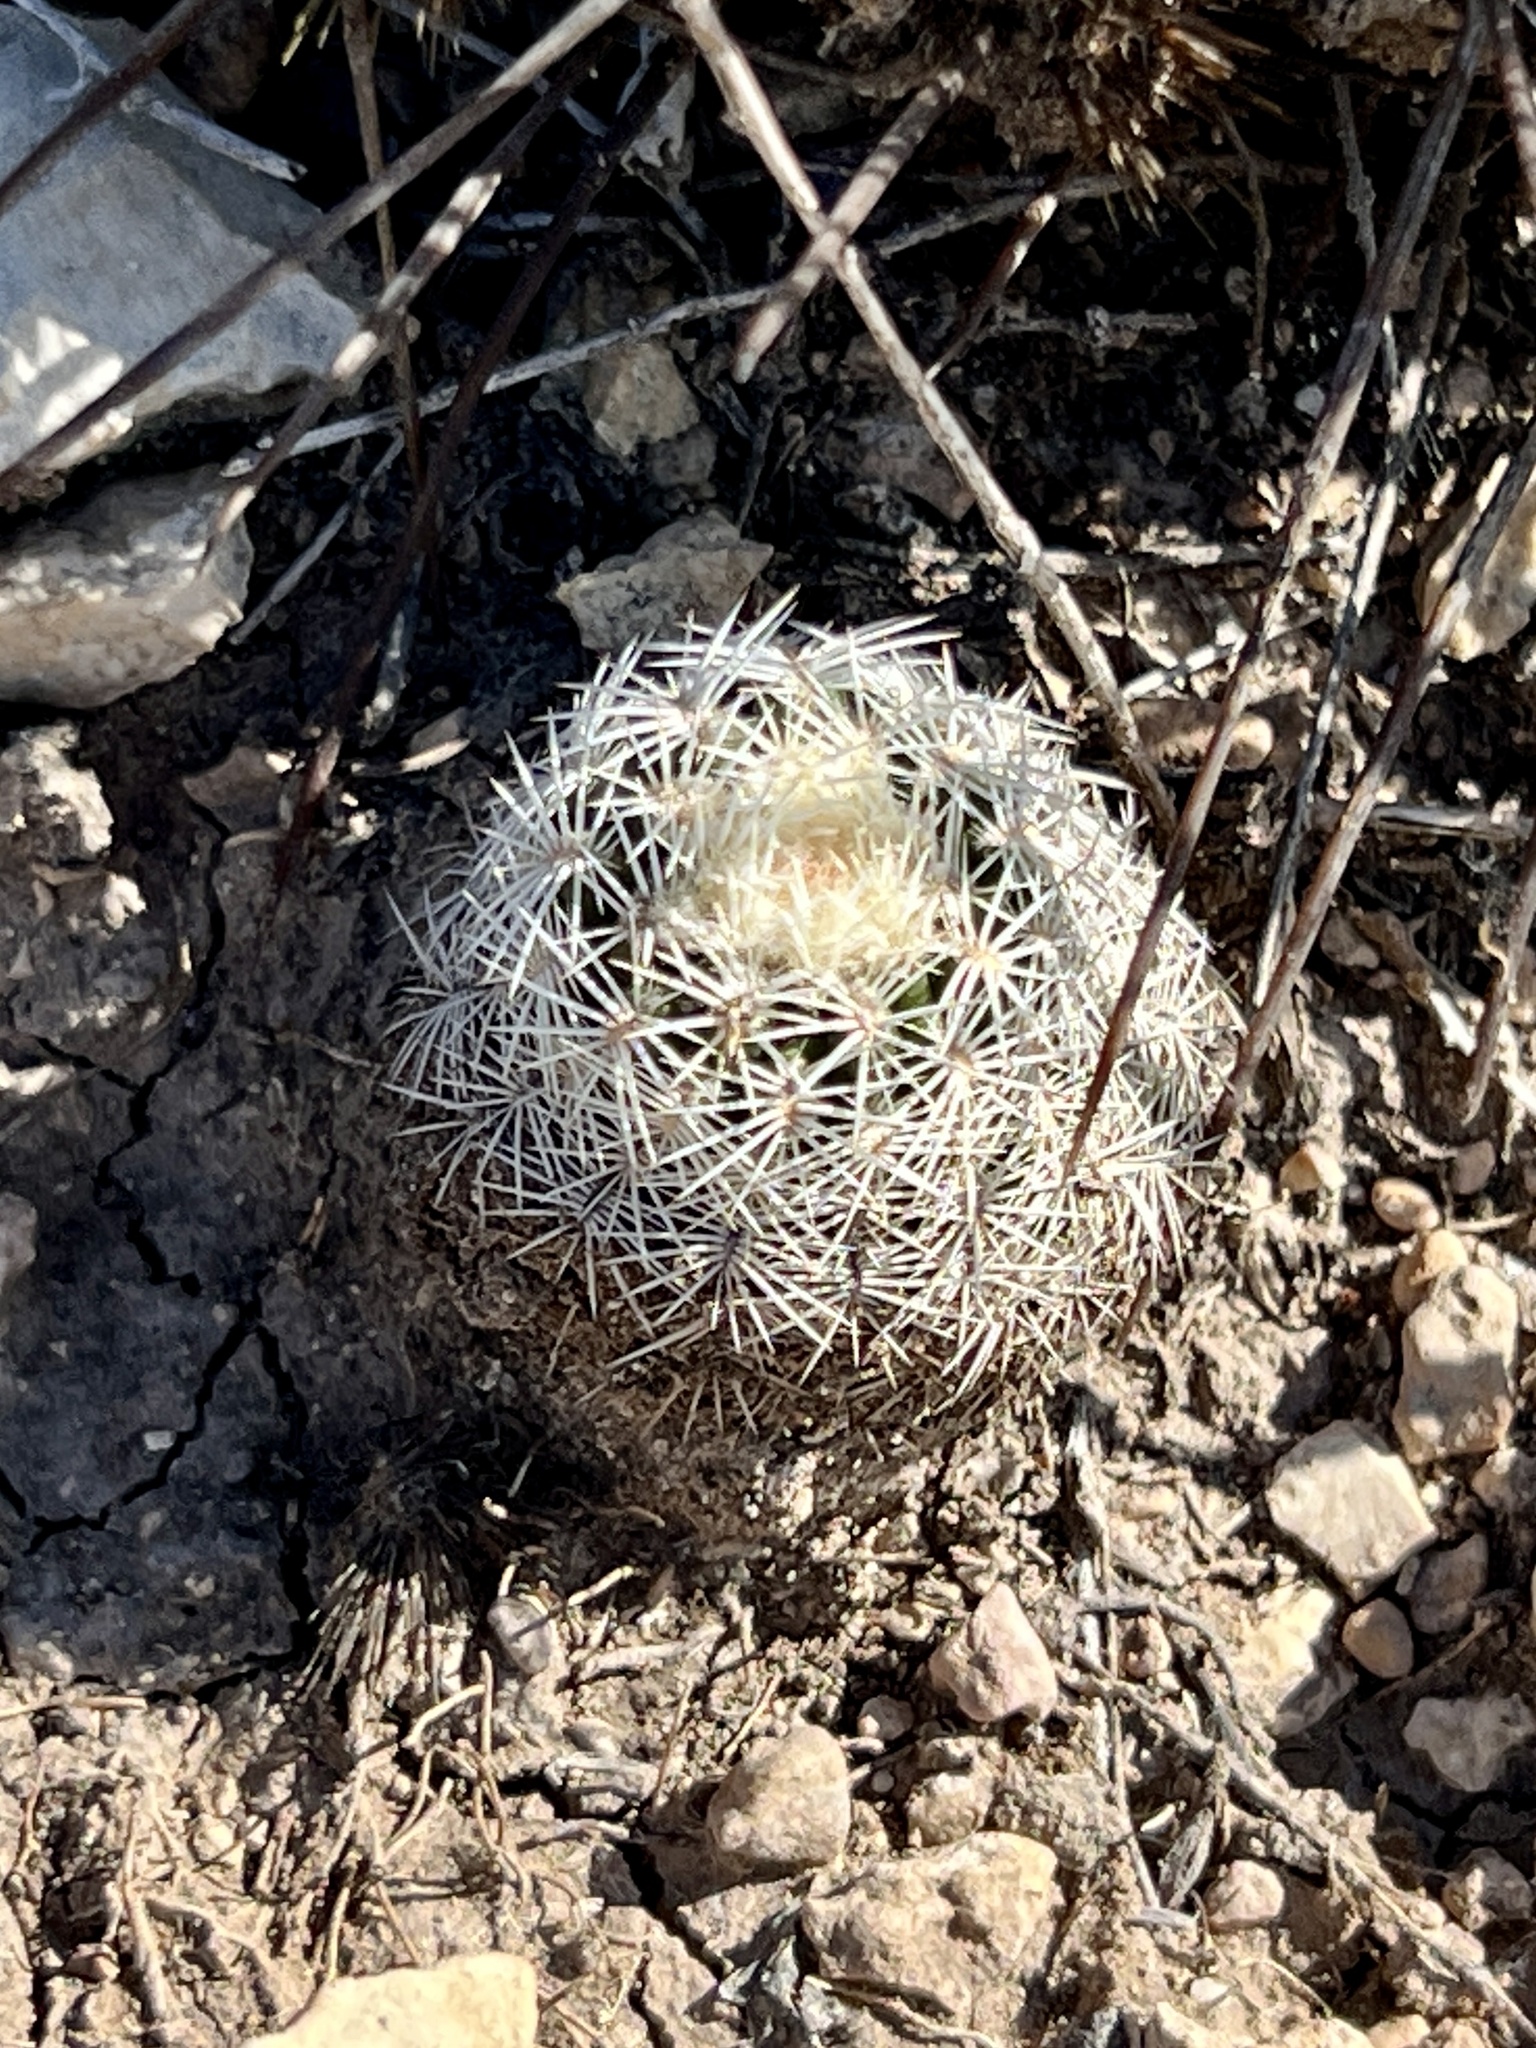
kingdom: Plantae
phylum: Tracheophyta
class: Magnoliopsida
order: Caryophyllales
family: Cactaceae
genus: Echinocereus
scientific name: Echinocereus pectinatus
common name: Rainbow cactus
